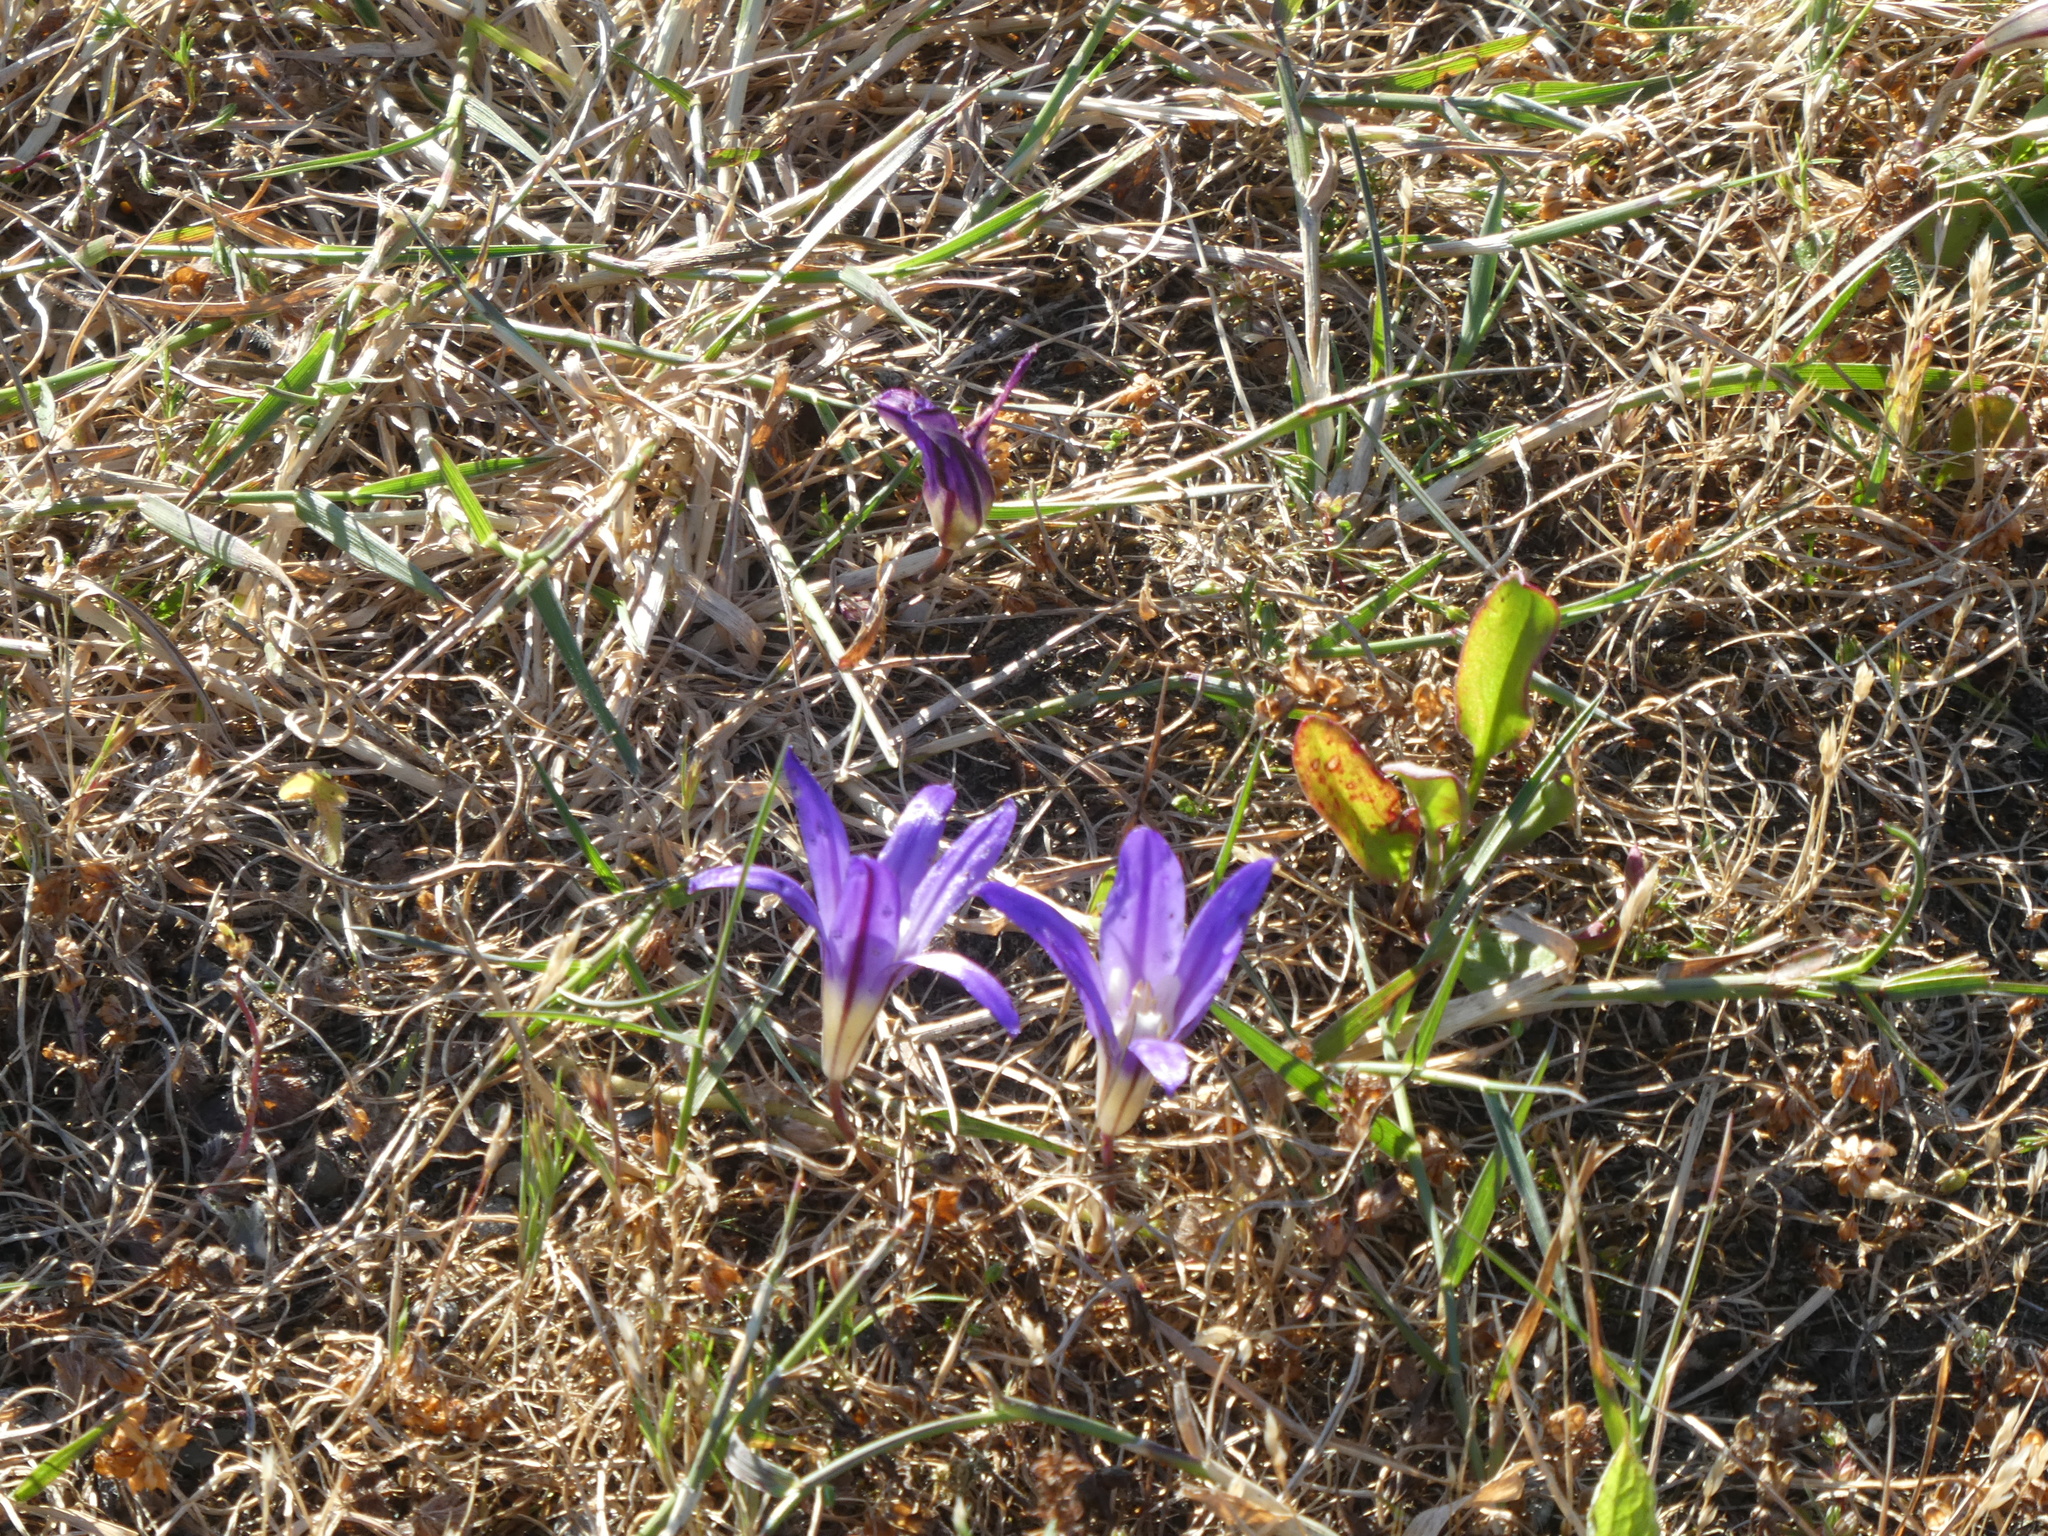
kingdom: Plantae
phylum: Tracheophyta
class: Liliopsida
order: Asparagales
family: Asparagaceae
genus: Brodiaea
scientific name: Brodiaea terrestris
